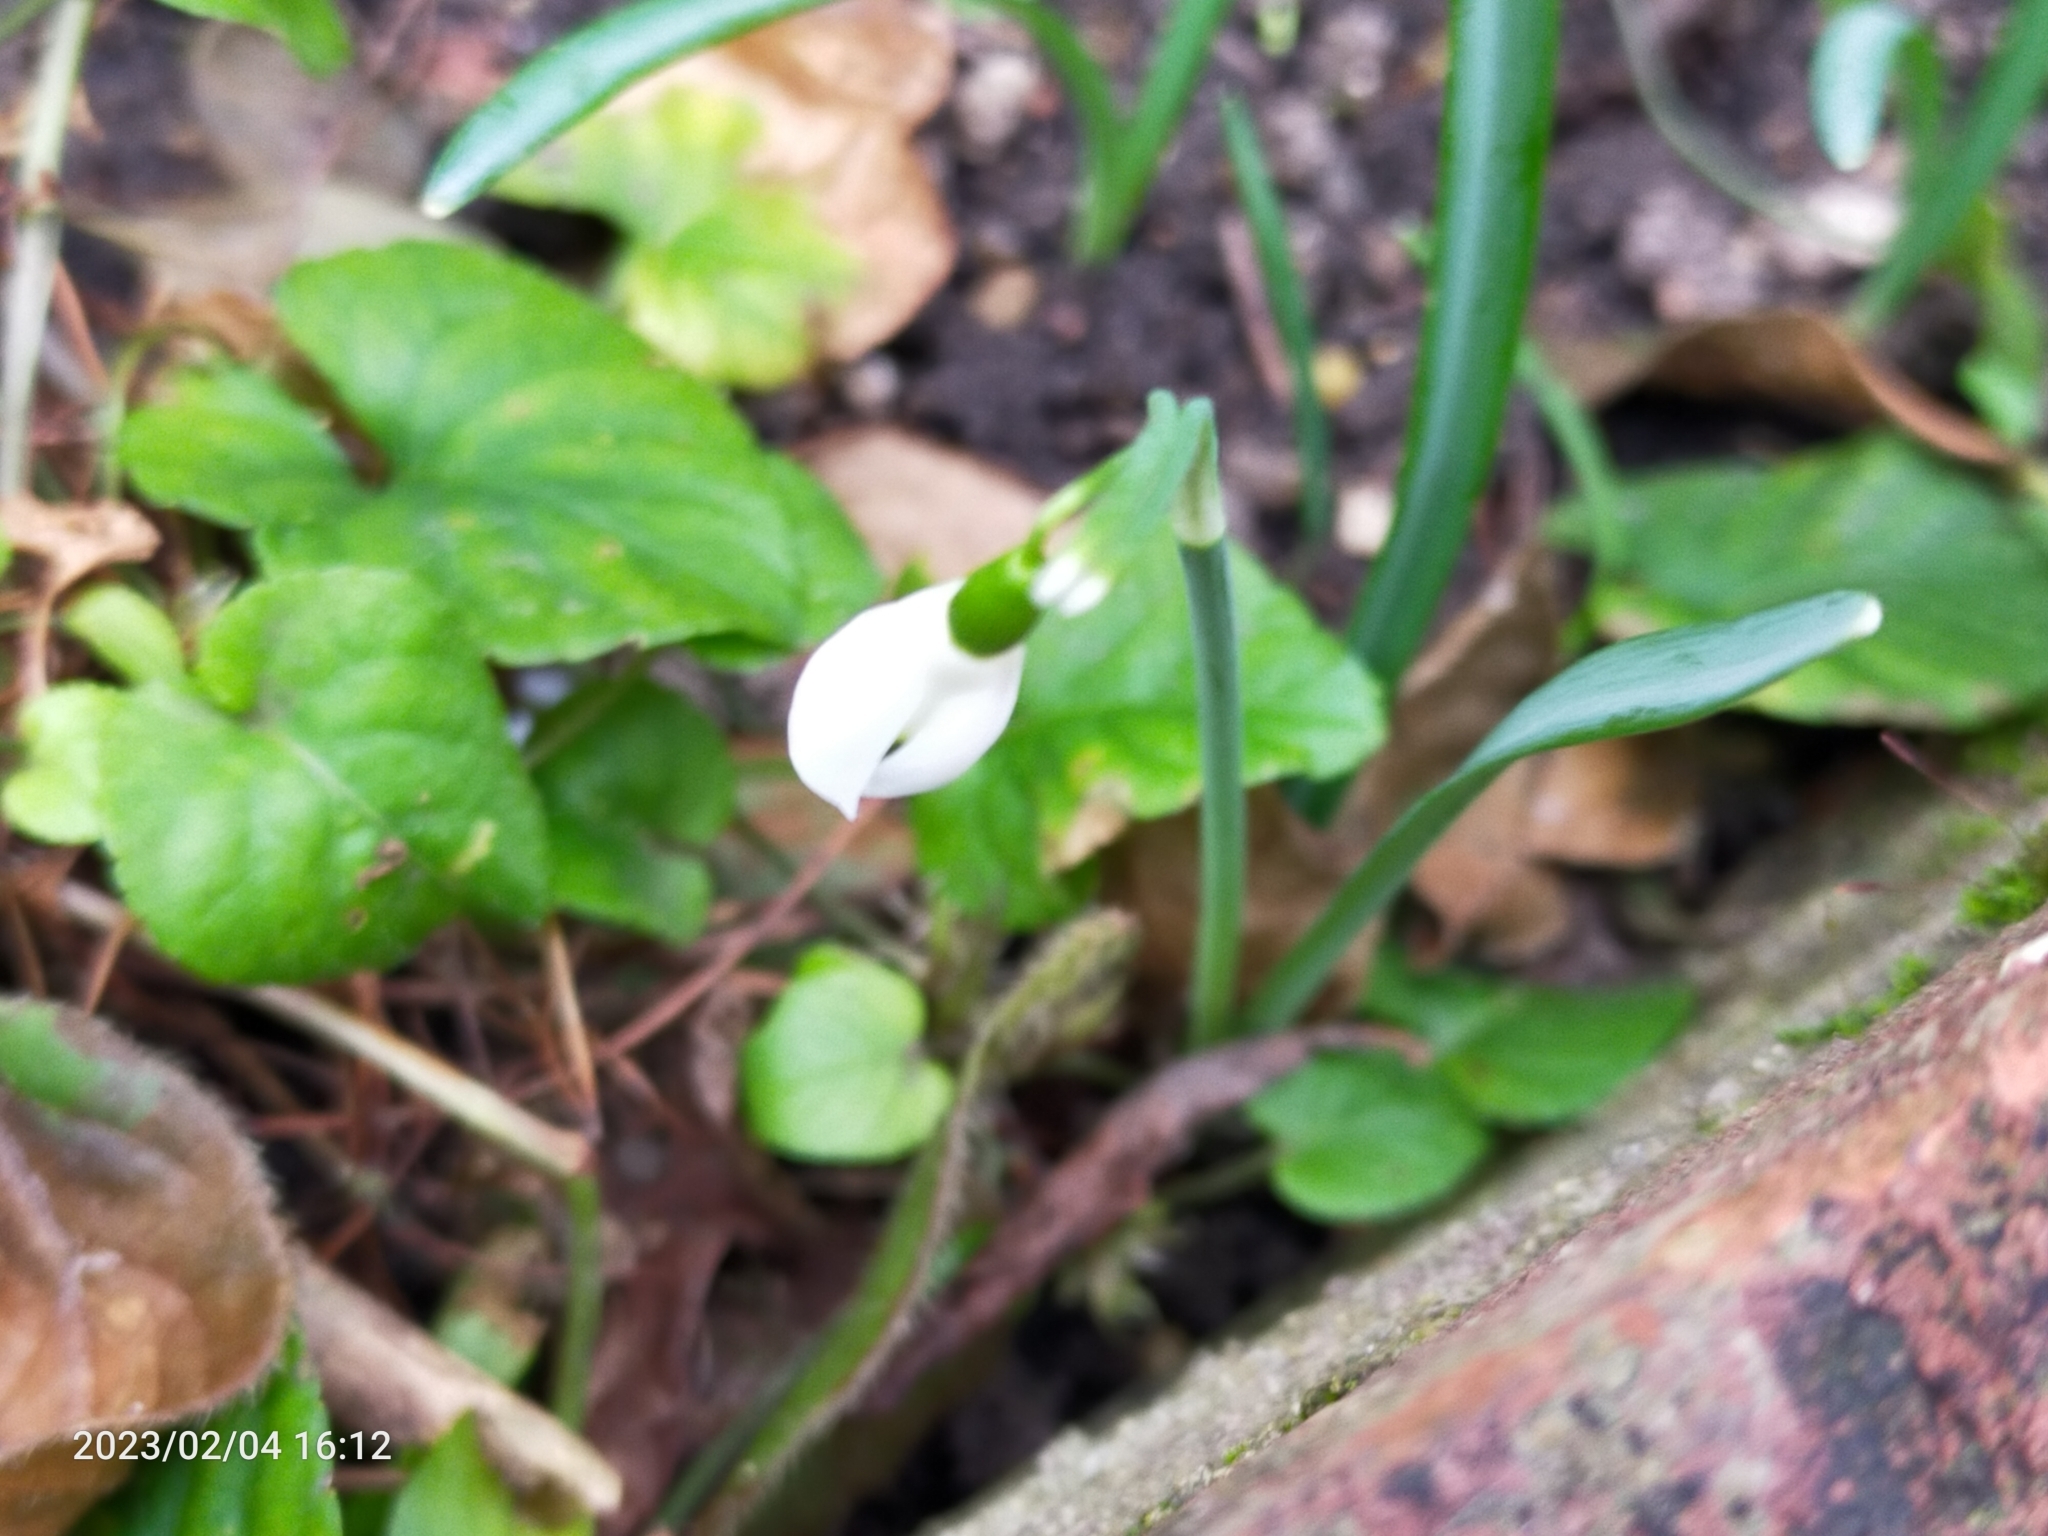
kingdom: Plantae
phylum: Tracheophyta
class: Liliopsida
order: Asparagales
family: Amaryllidaceae
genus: Galanthus
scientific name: Galanthus nivalis
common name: Snowdrop
